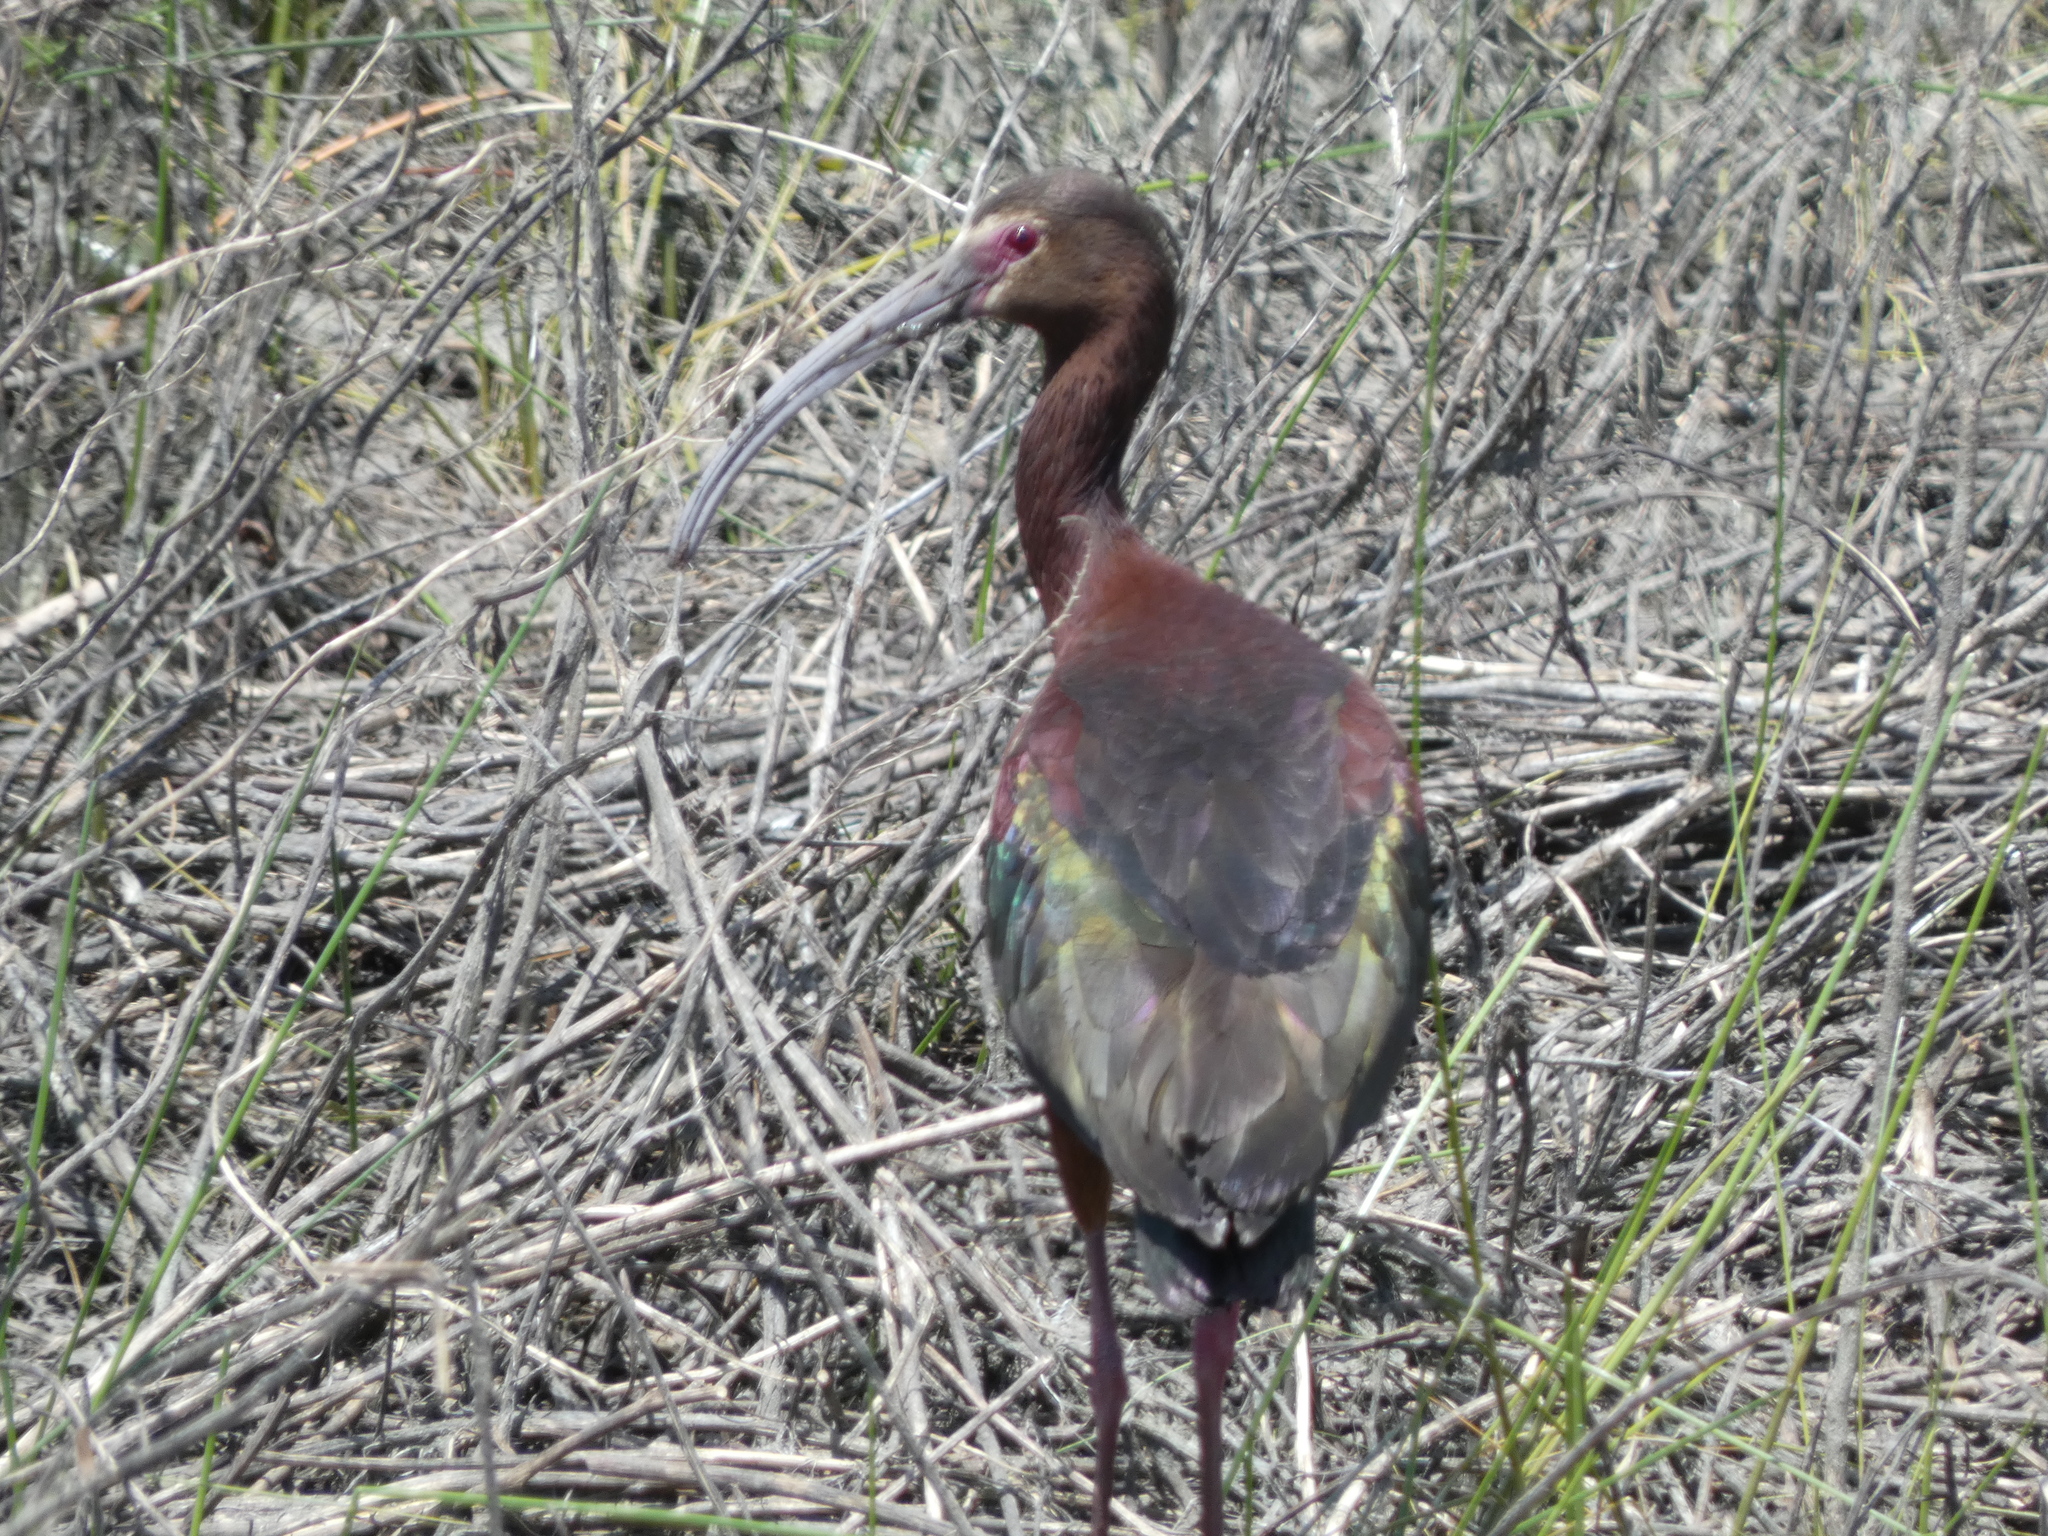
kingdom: Animalia
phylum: Chordata
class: Aves
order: Pelecaniformes
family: Threskiornithidae
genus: Plegadis
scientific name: Plegadis chihi
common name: White-faced ibis
